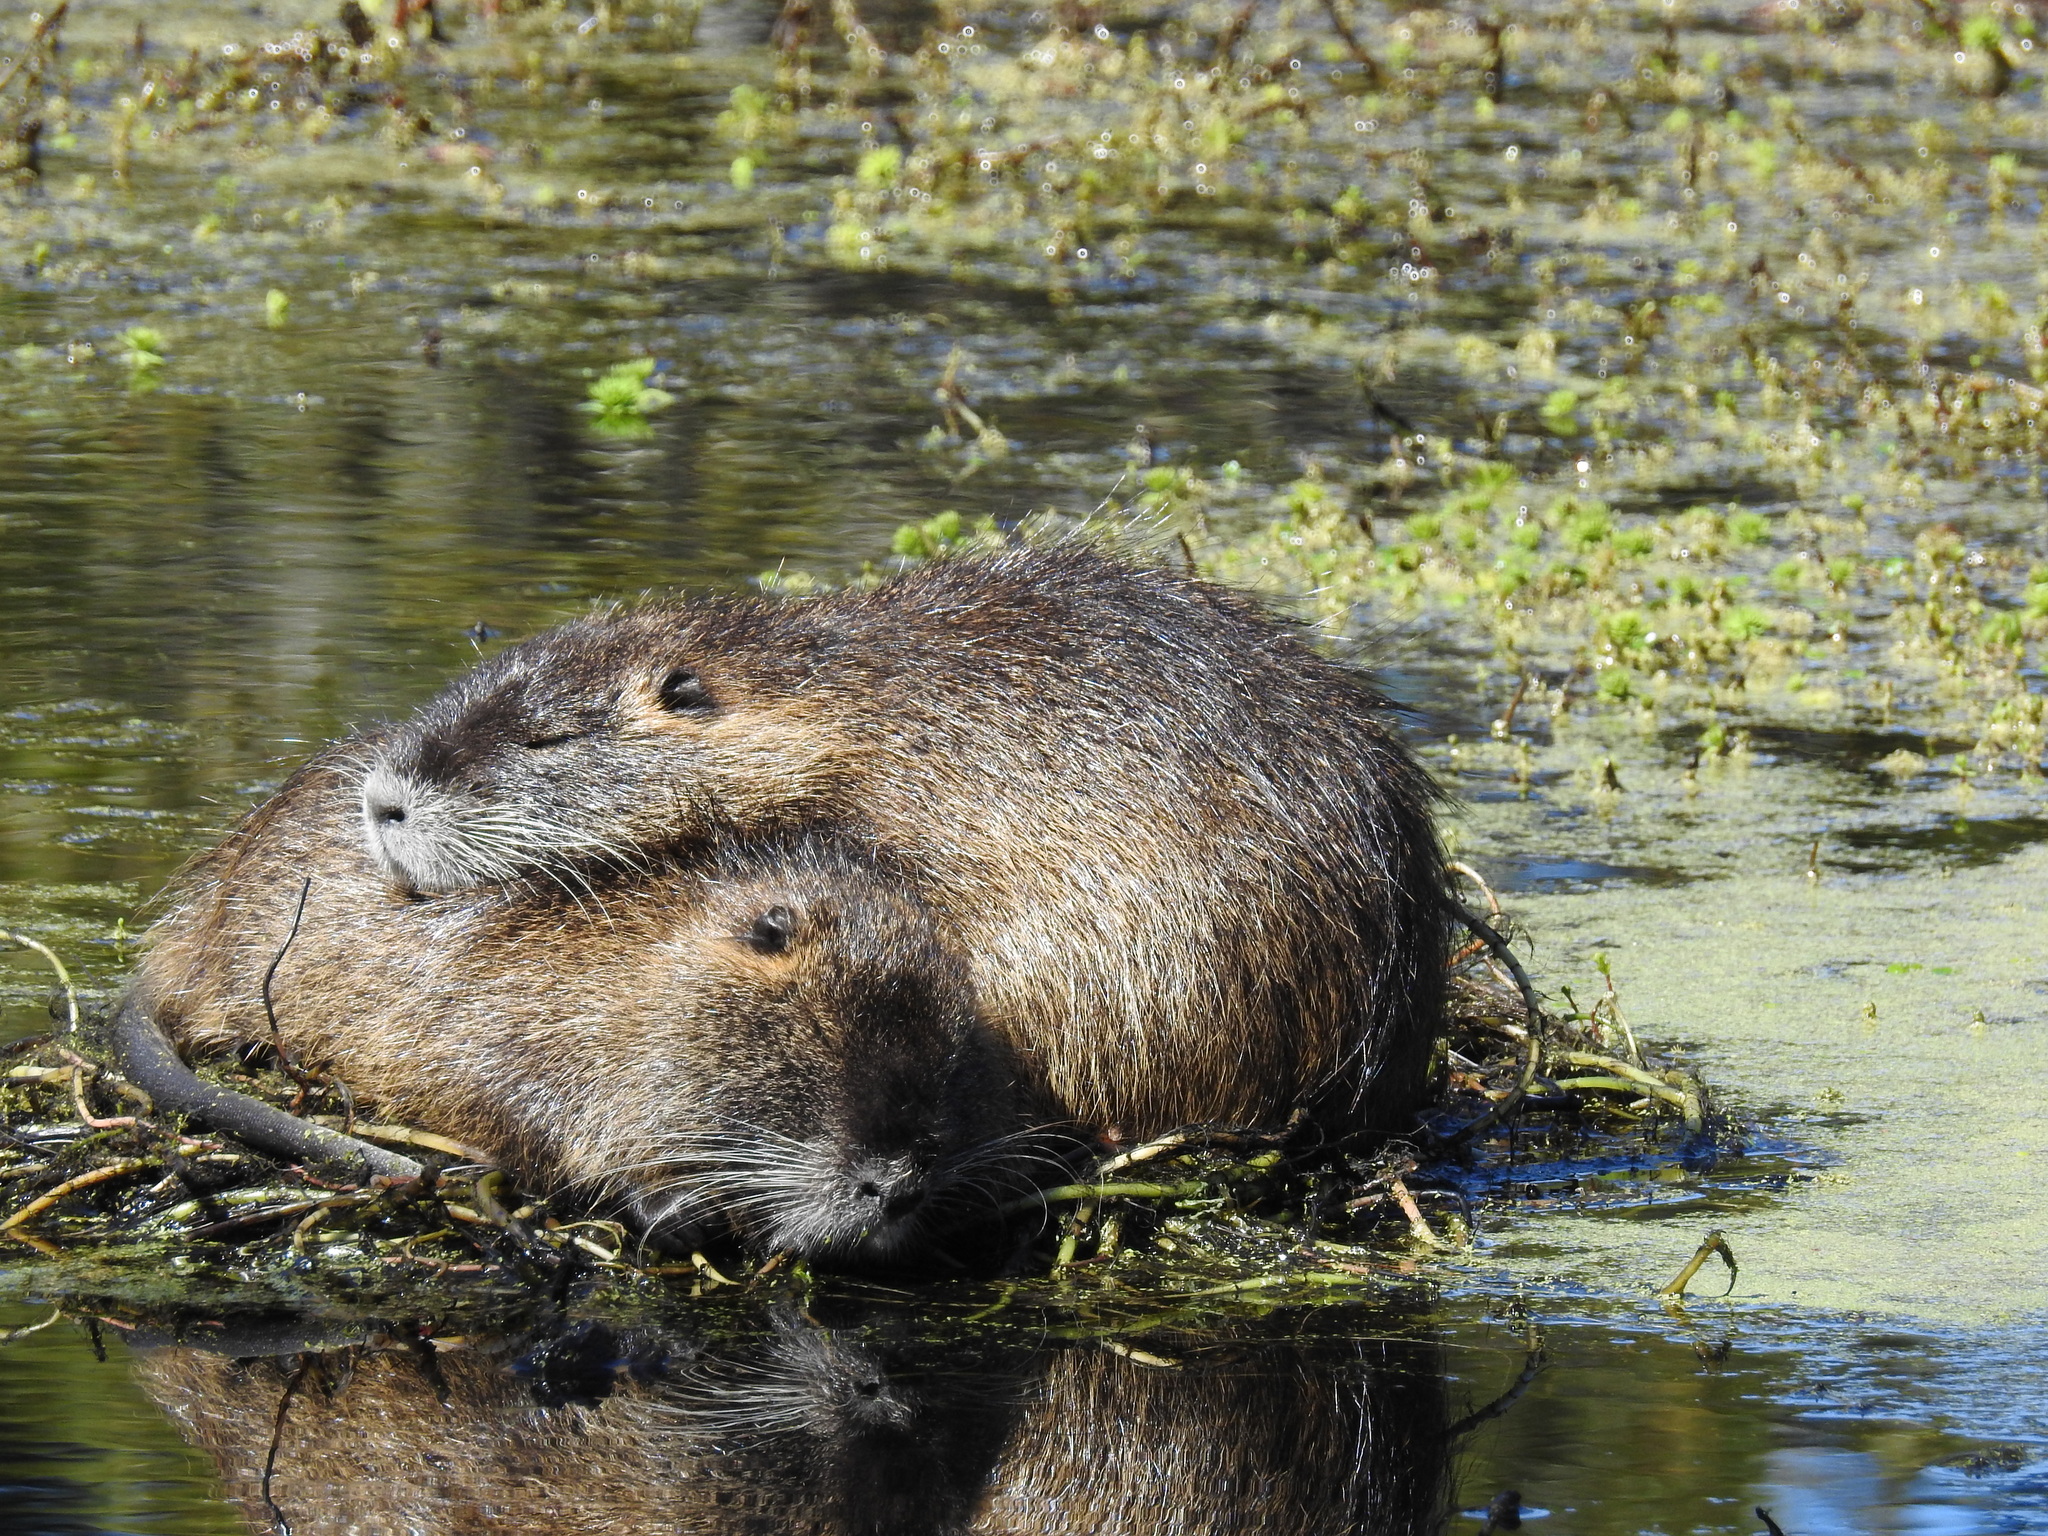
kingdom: Animalia
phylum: Chordata
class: Mammalia
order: Rodentia
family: Myocastoridae
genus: Myocastor
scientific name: Myocastor coypus
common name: Coypu
